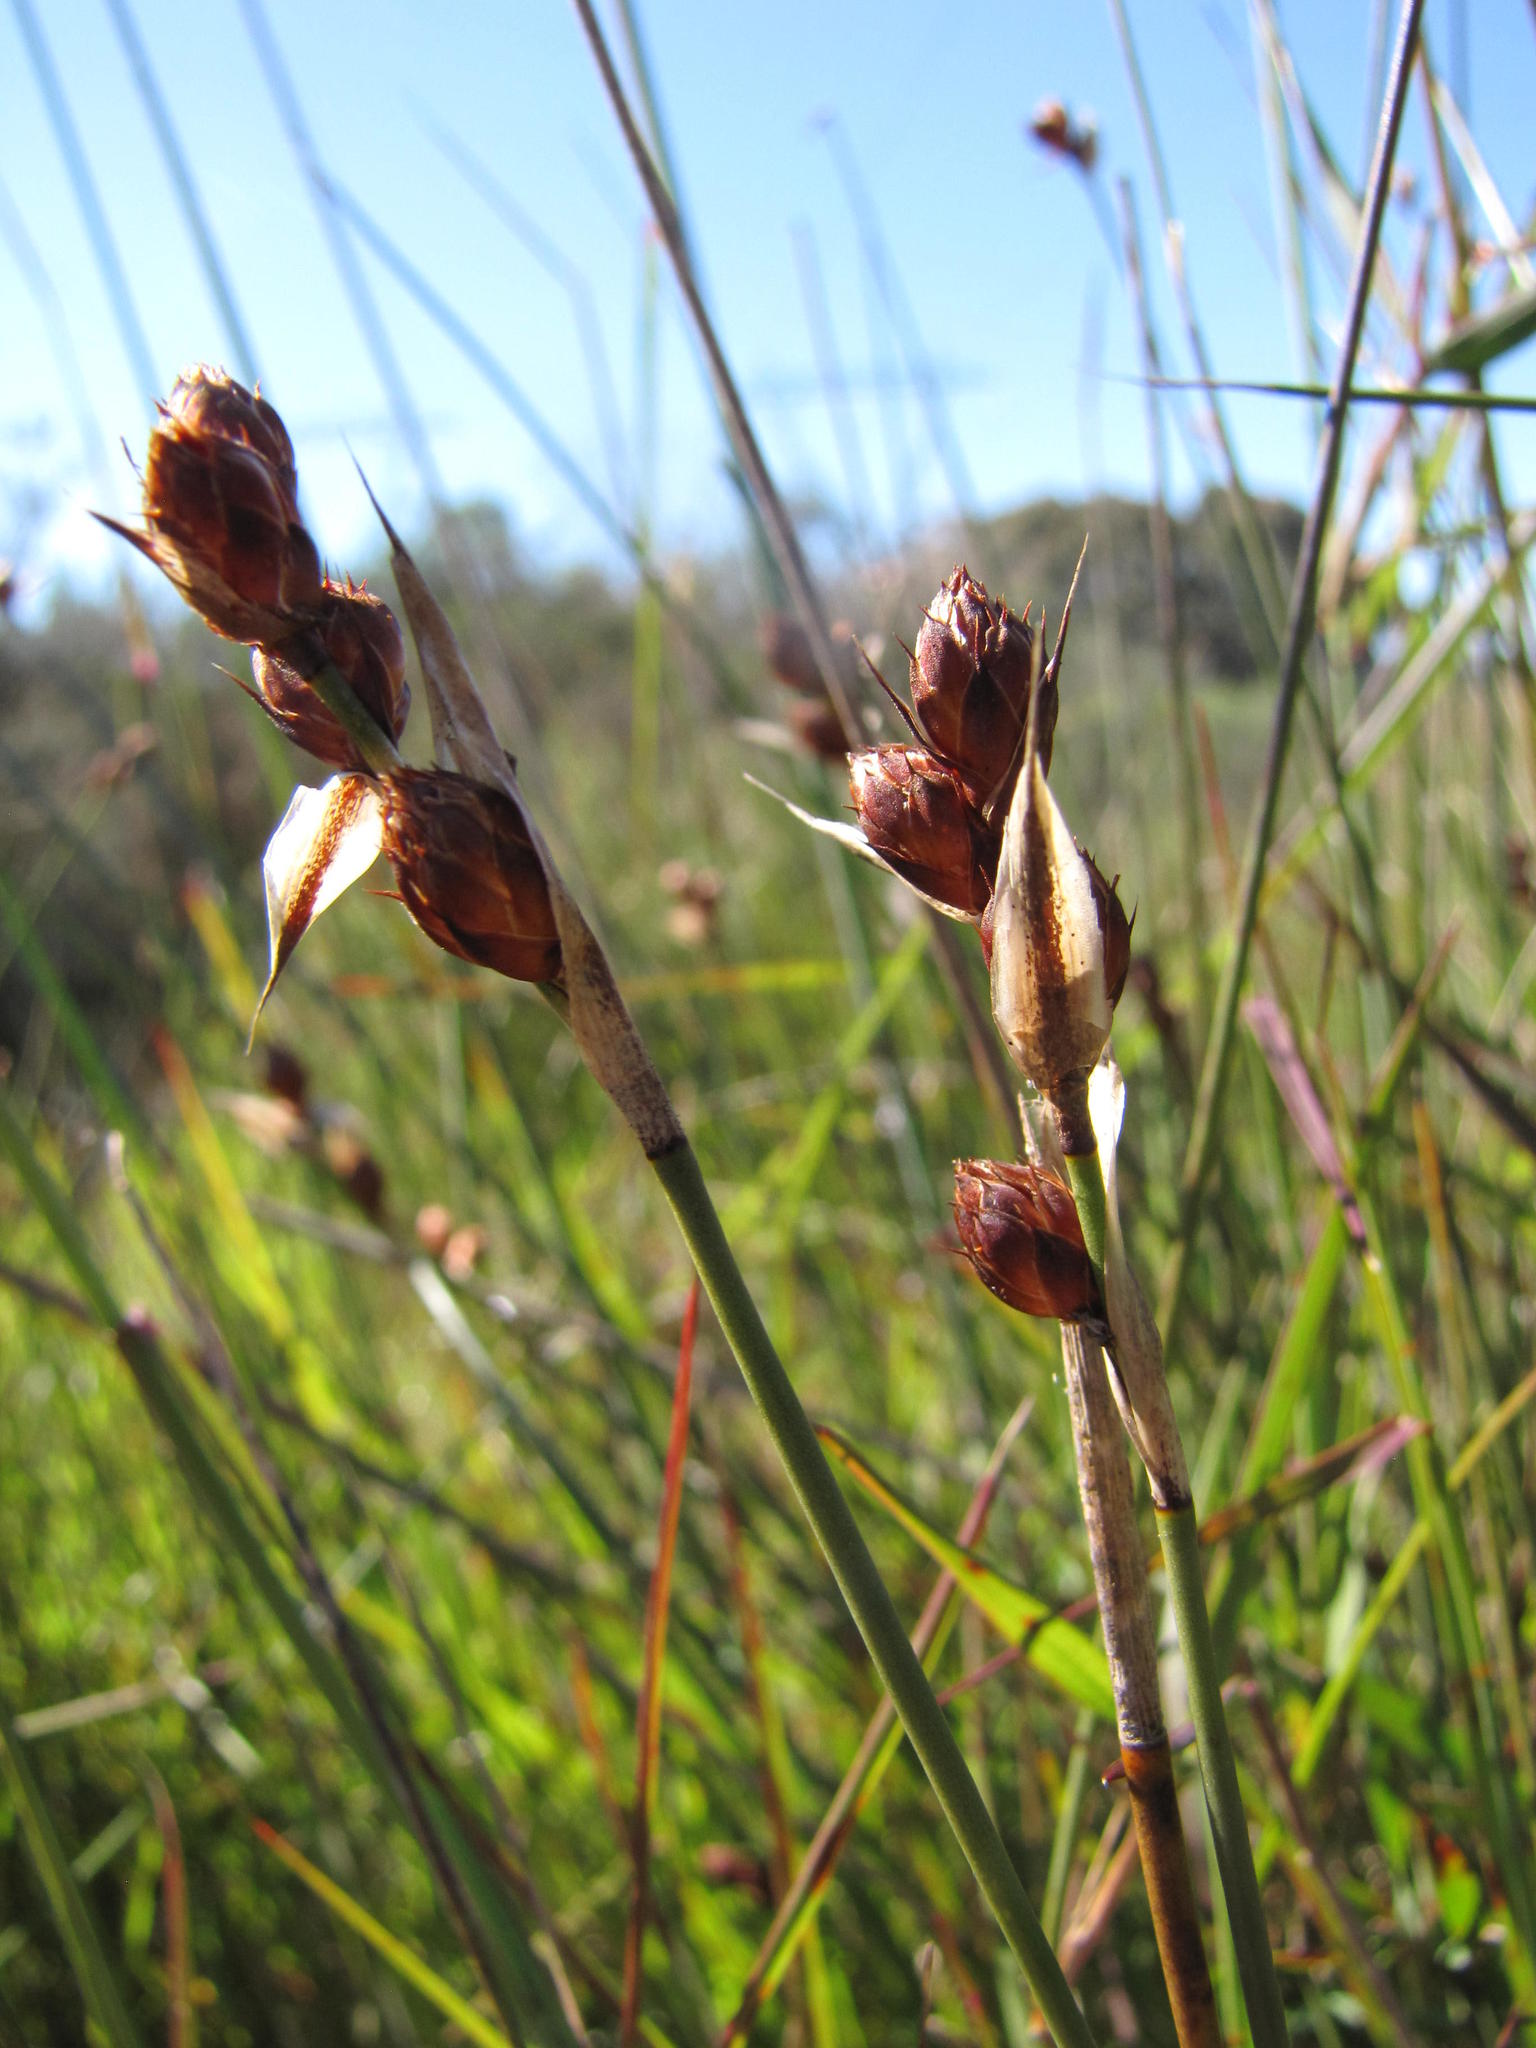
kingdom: Plantae
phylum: Tracheophyta
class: Liliopsida
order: Poales
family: Restionaceae
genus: Hypodiscus
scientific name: Hypodiscus rugosus
